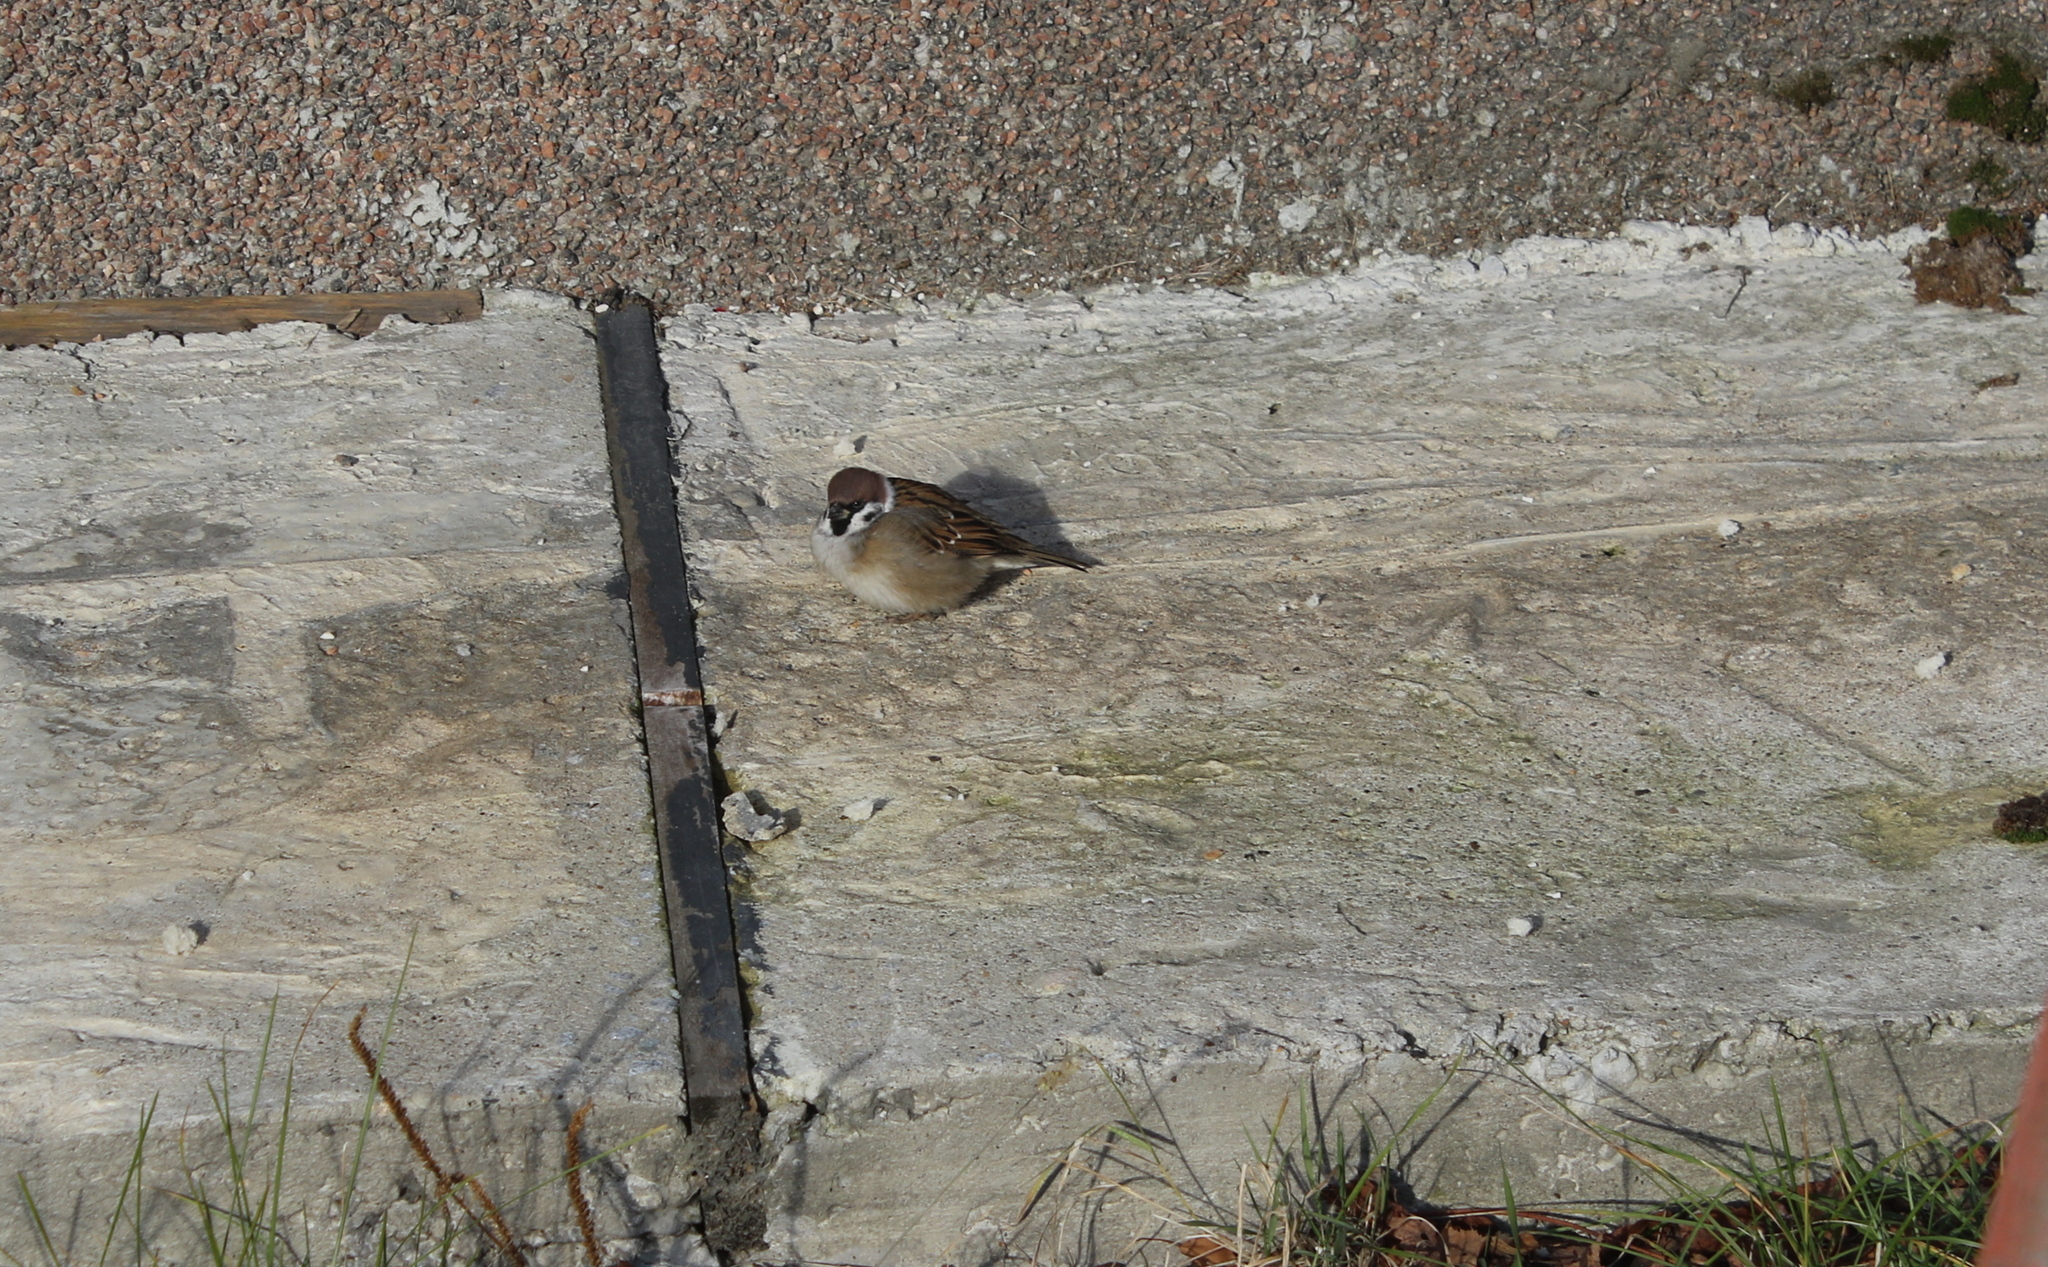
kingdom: Animalia
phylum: Chordata
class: Aves
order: Passeriformes
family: Passeridae
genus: Passer
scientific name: Passer montanus
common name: Eurasian tree sparrow
